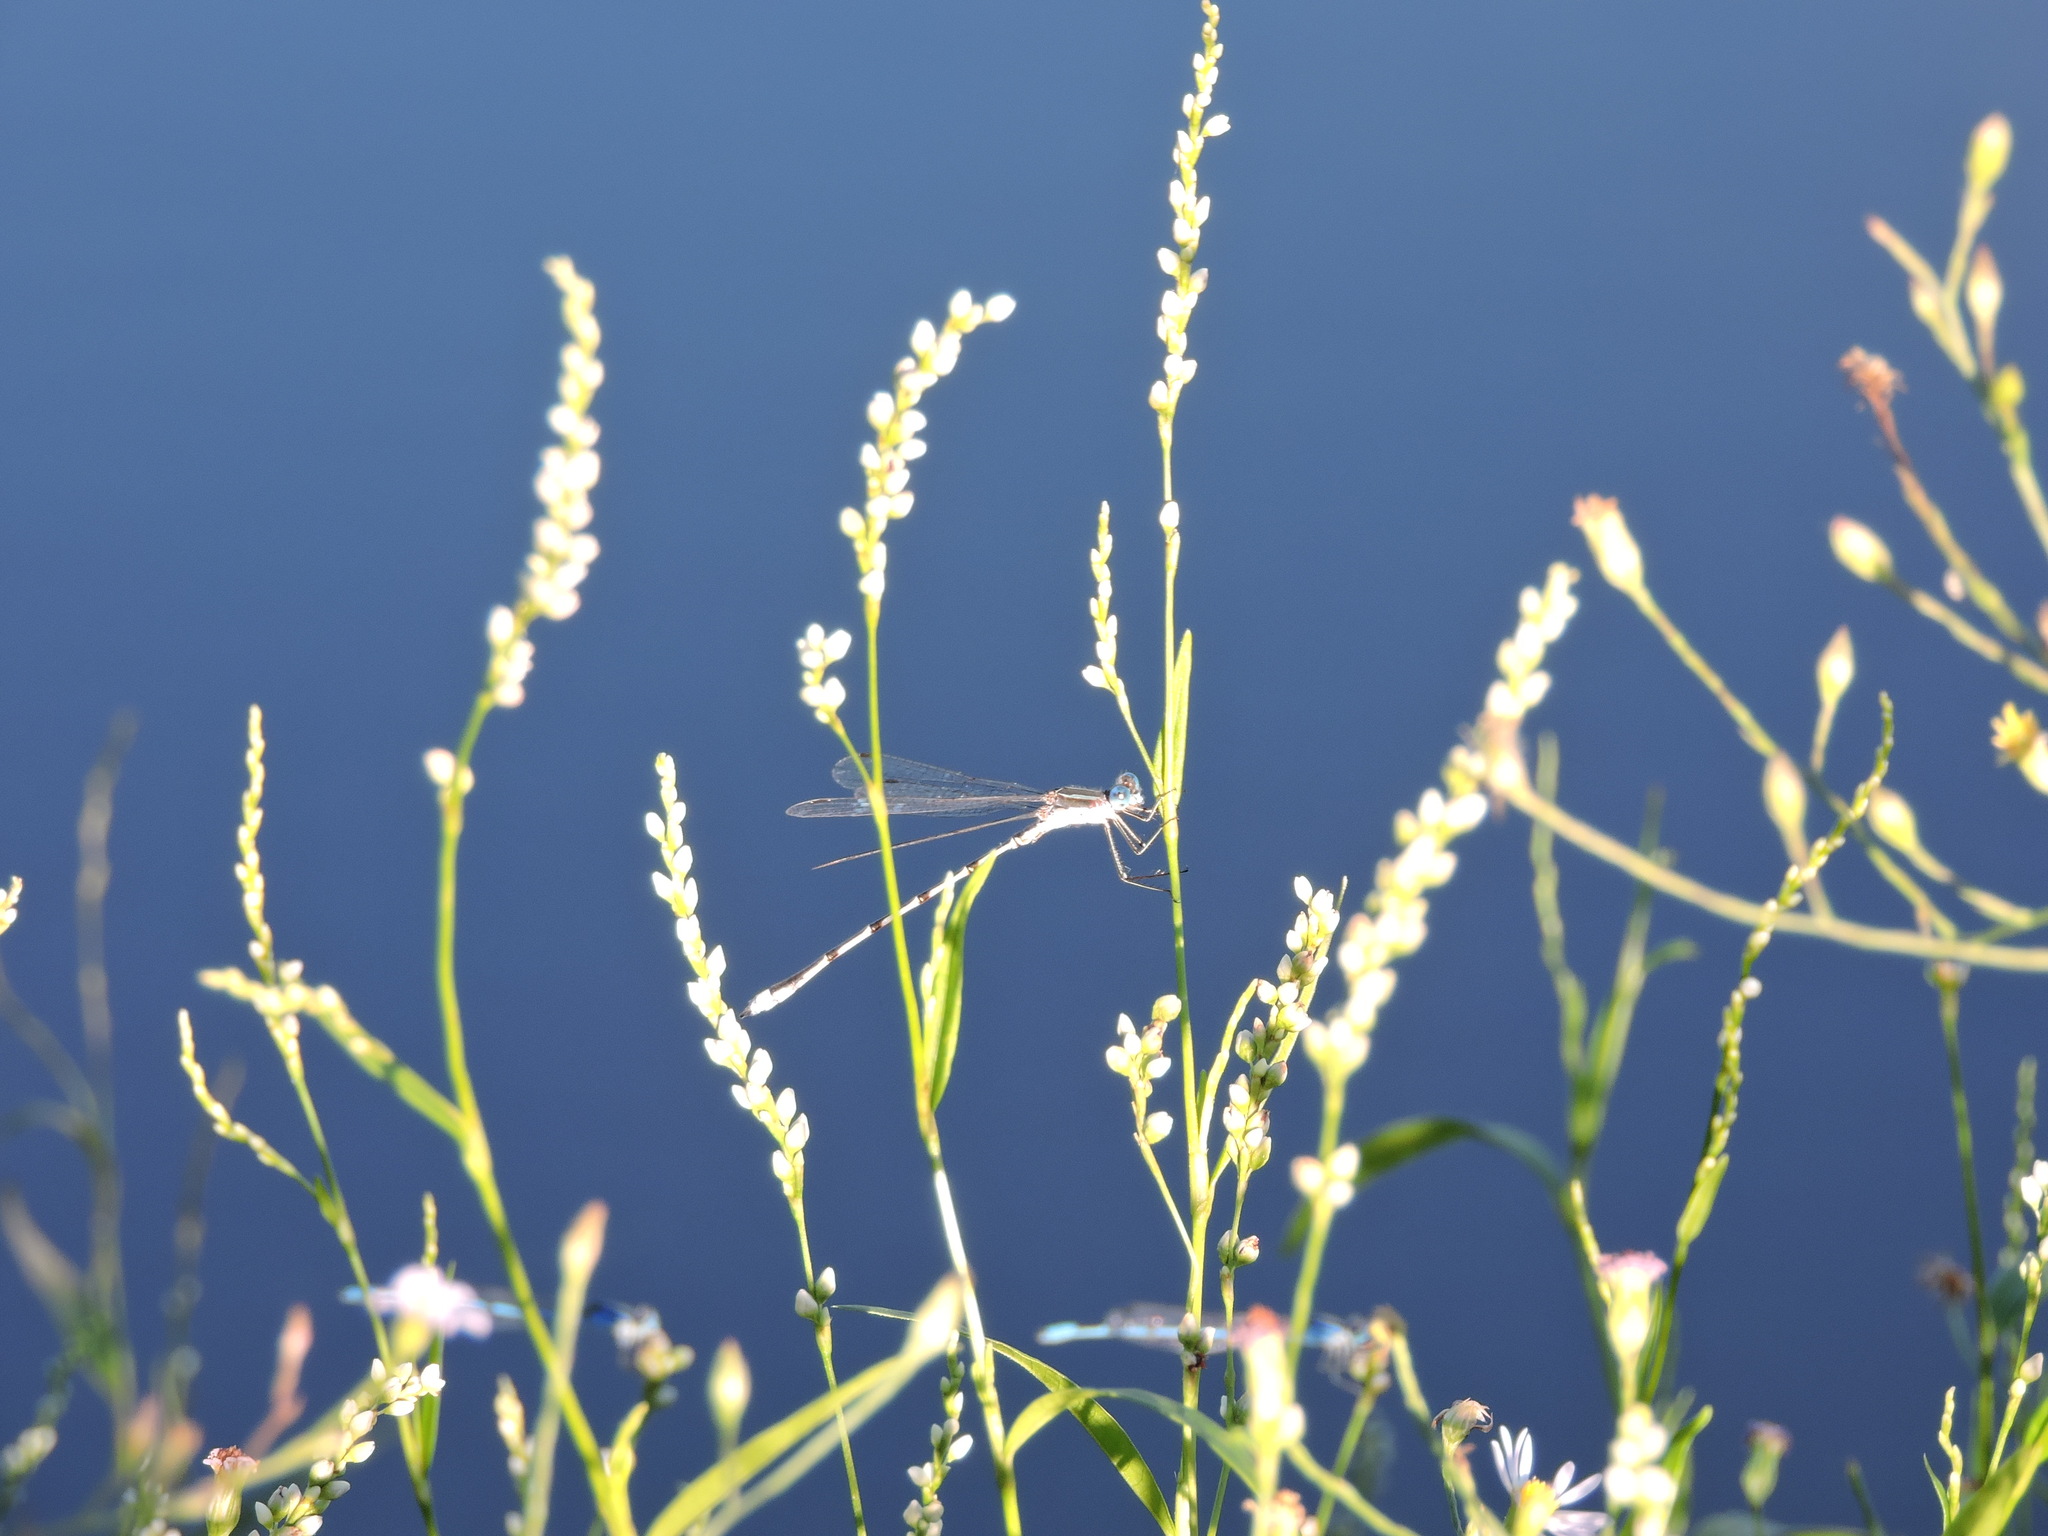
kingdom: Animalia
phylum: Arthropoda
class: Insecta
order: Odonata
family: Lestidae
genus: Lestes
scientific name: Lestes australis
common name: Southern spreadwing
